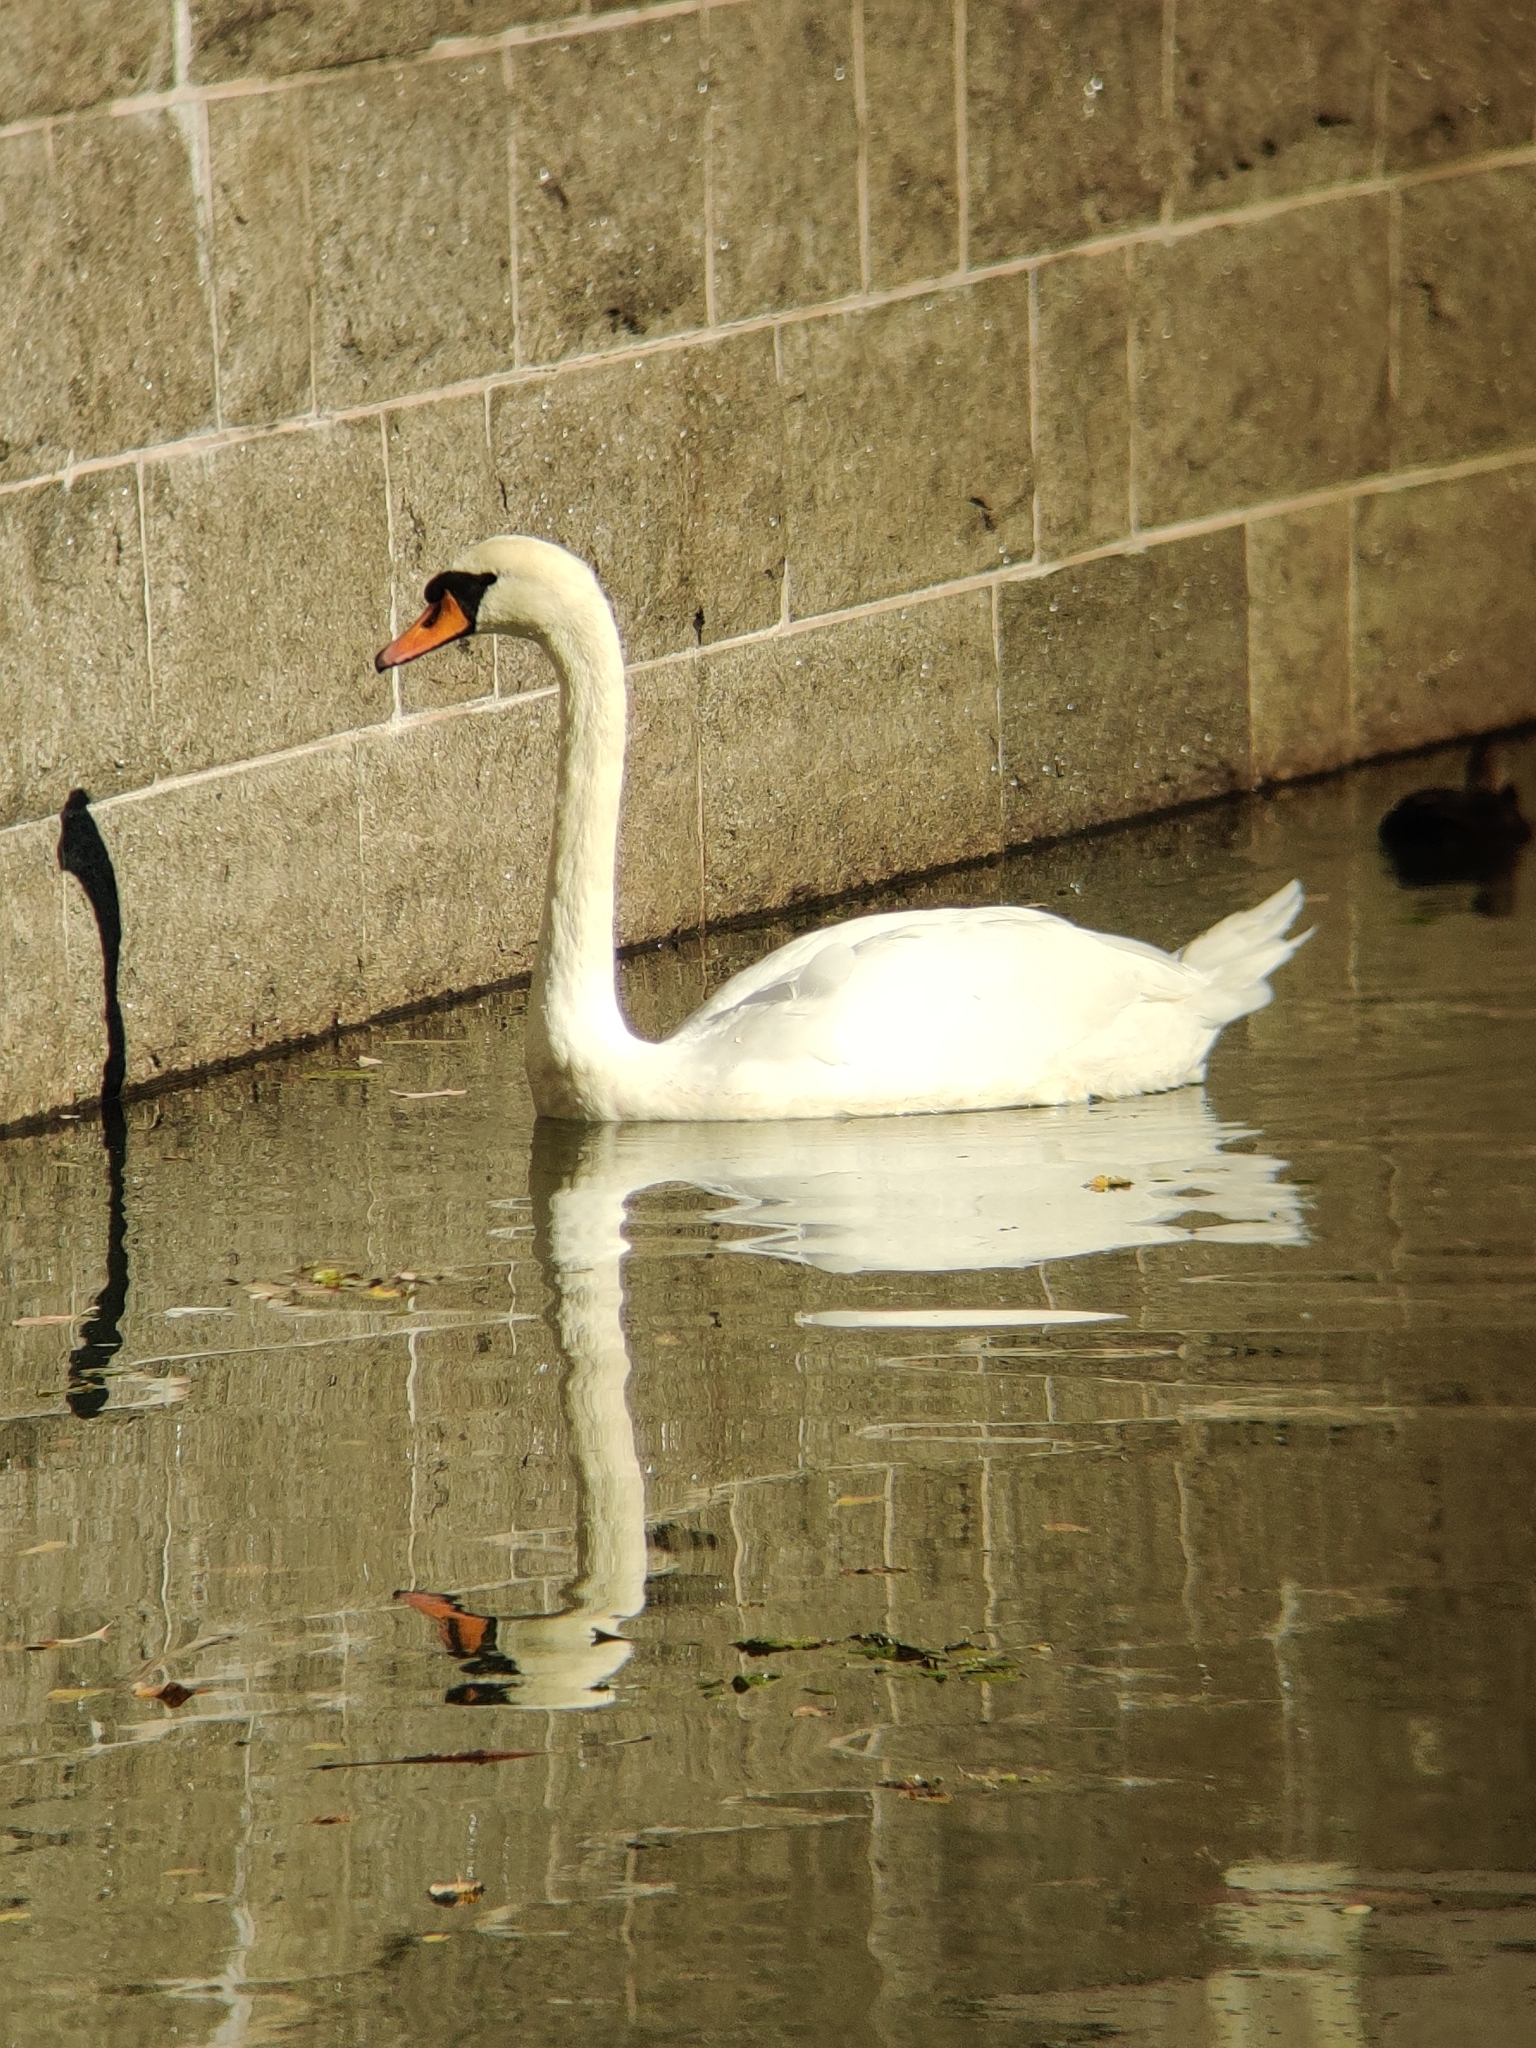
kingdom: Animalia
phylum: Chordata
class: Aves
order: Anseriformes
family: Anatidae
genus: Cygnus
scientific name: Cygnus olor
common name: Mute swan
